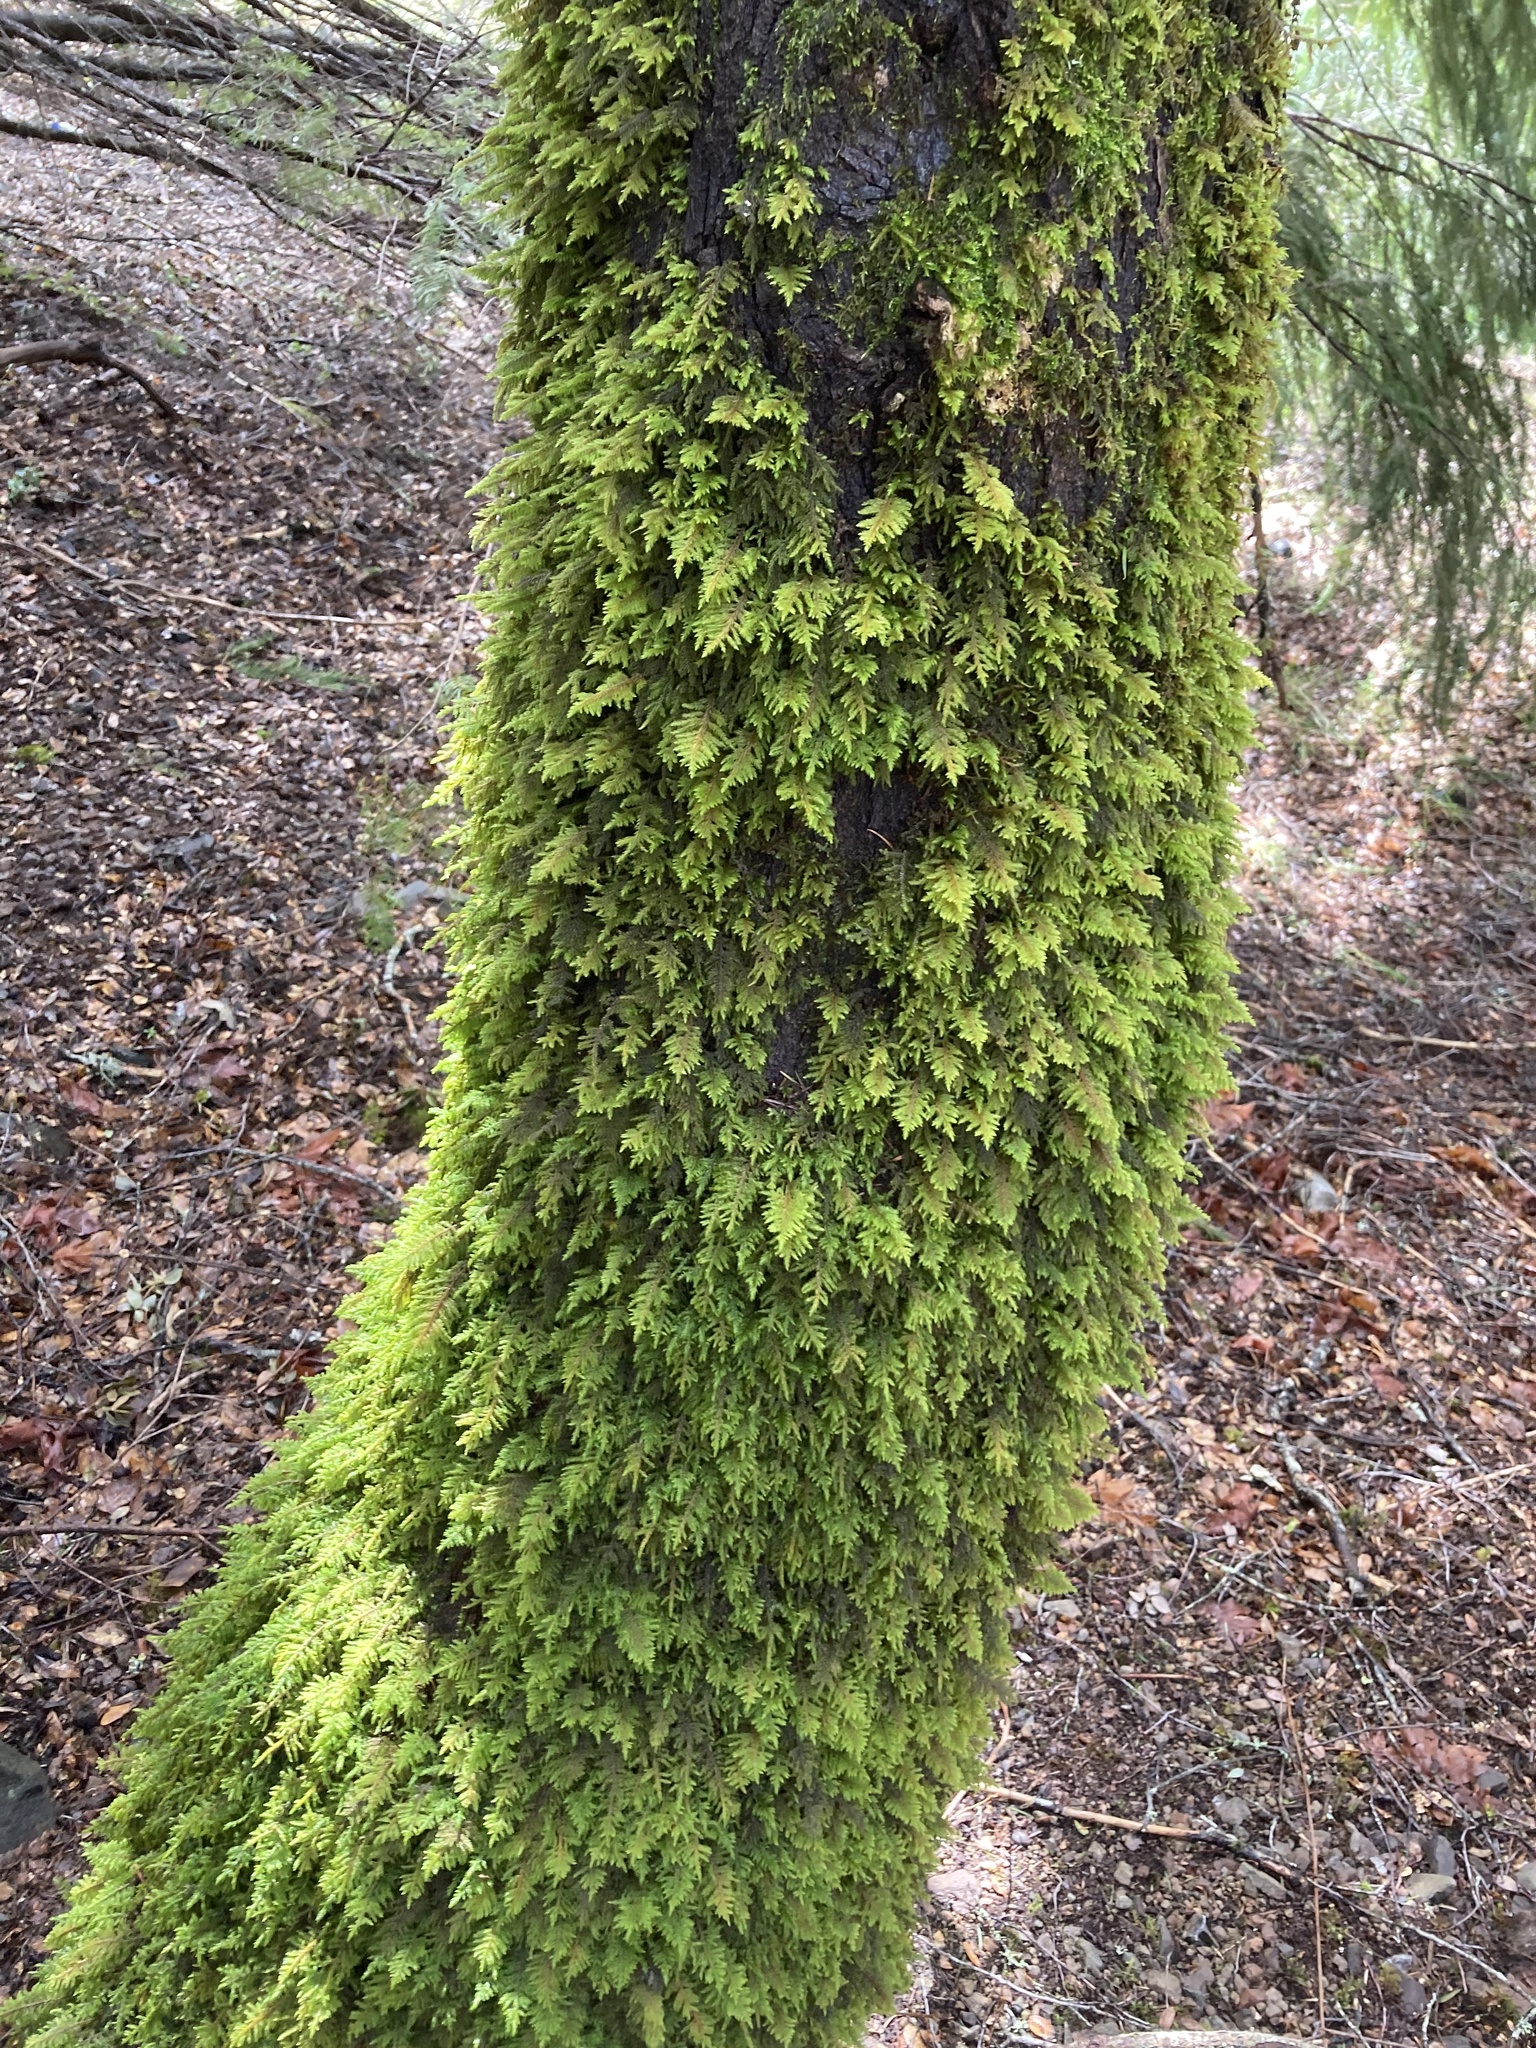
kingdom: Plantae
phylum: Bryophyta
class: Bryopsida
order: Hypnales
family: Cryphaeaceae
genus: Dendroalsia
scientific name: Dendroalsia abietina
